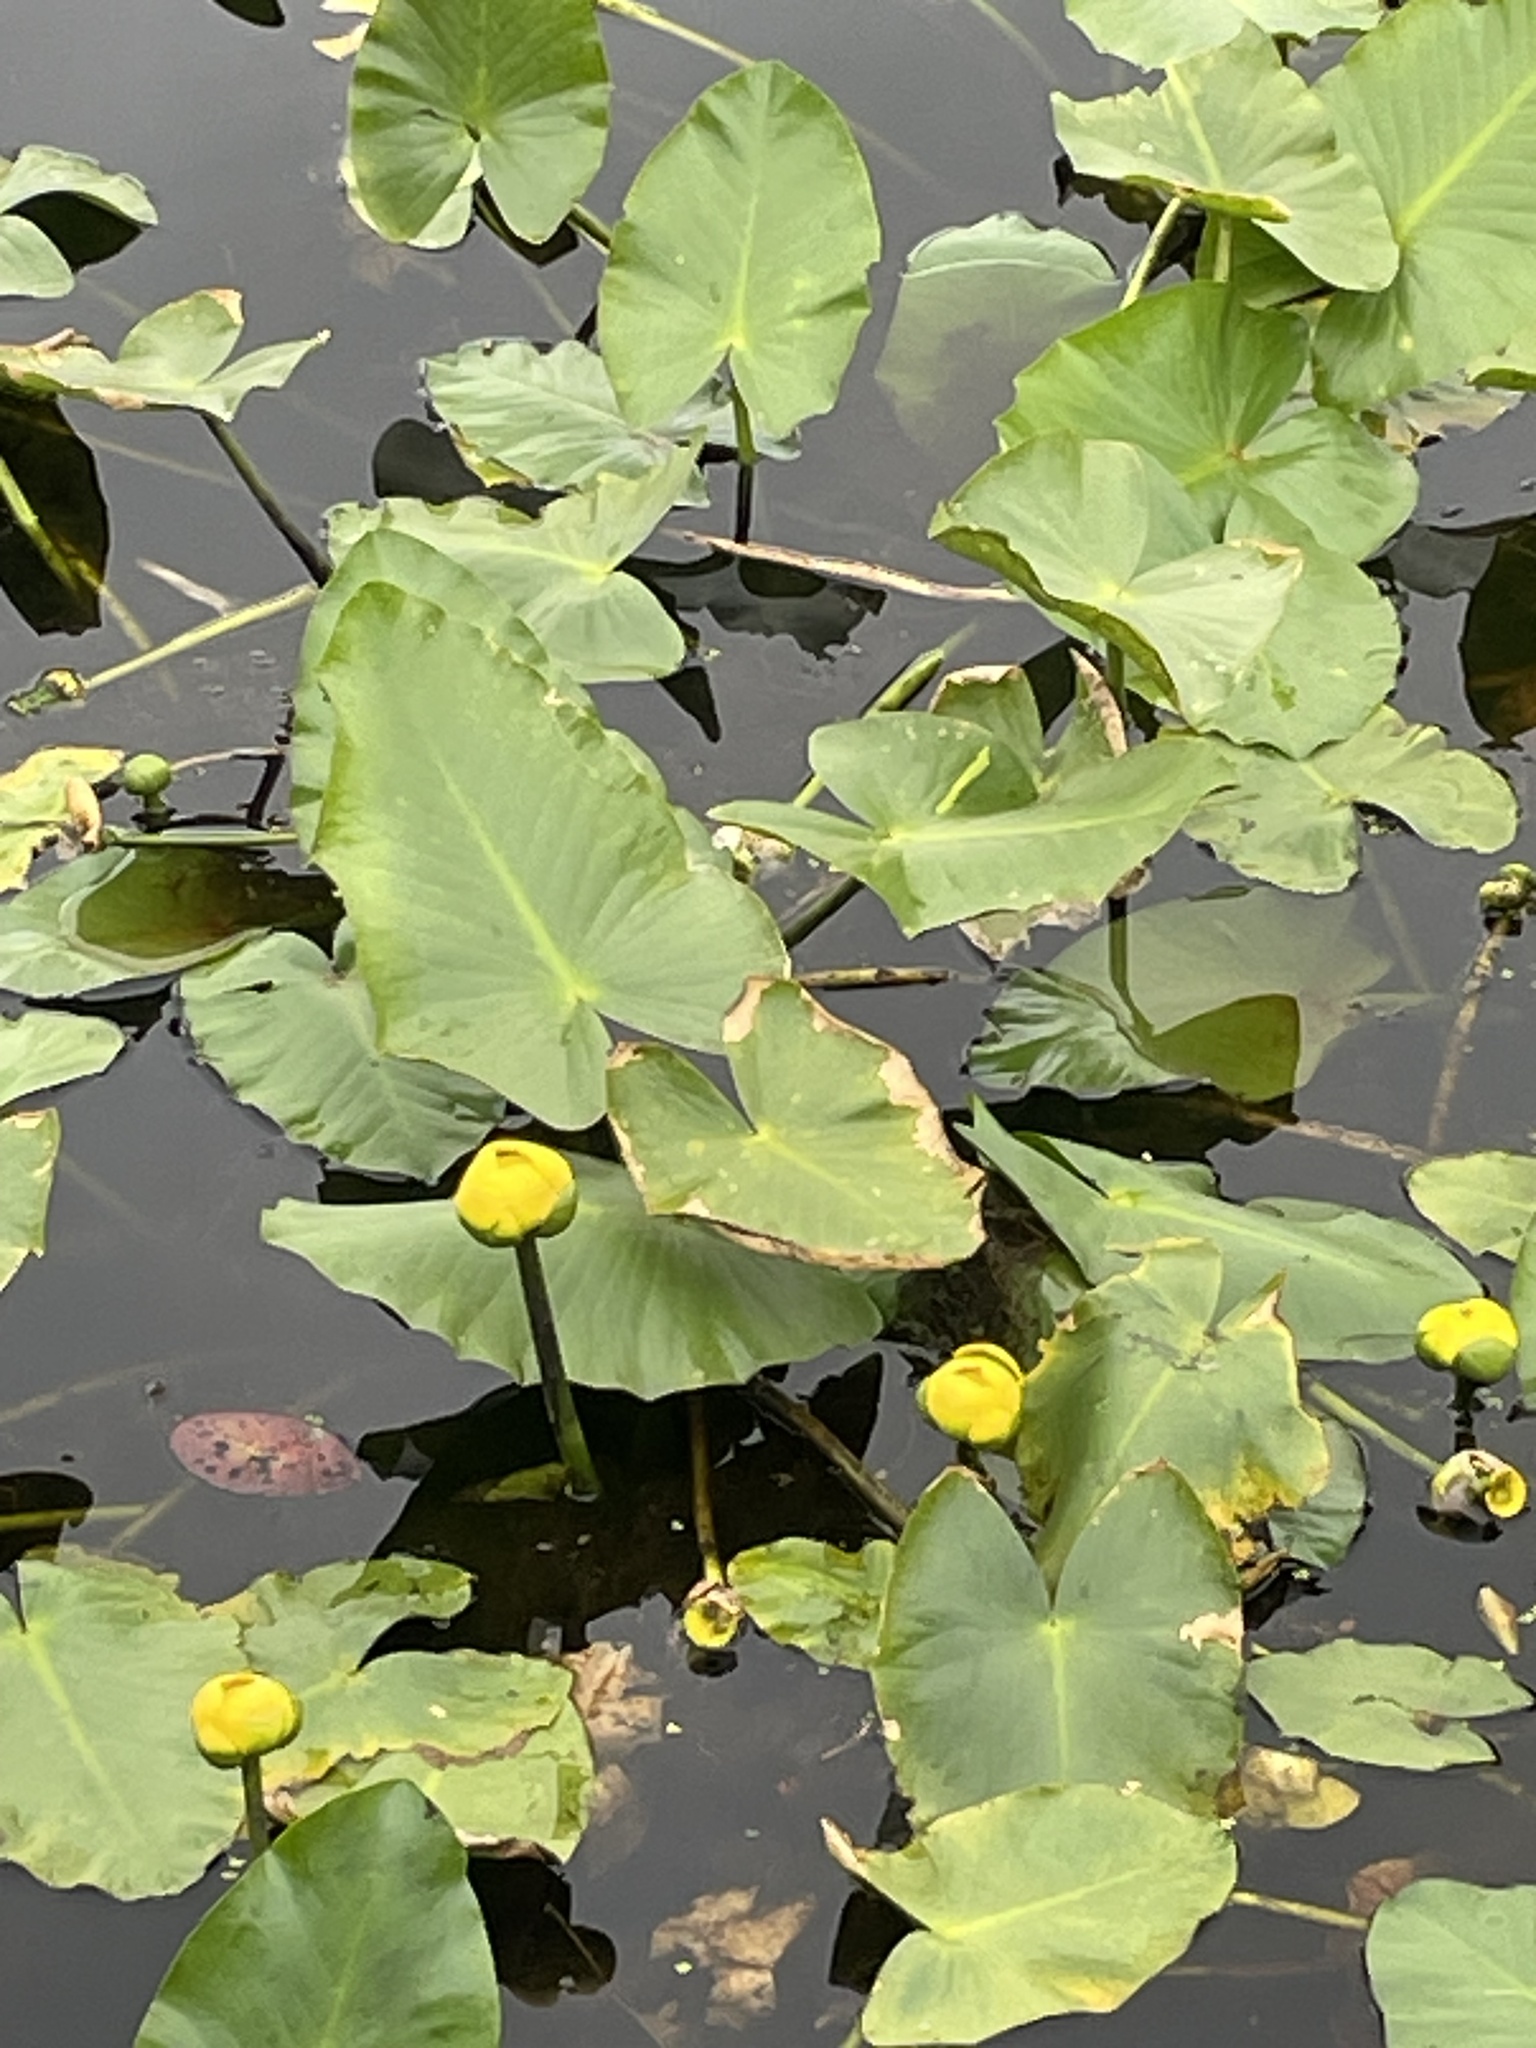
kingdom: Plantae
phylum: Tracheophyta
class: Magnoliopsida
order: Nymphaeales
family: Nymphaeaceae
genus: Nuphar
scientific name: Nuphar advena
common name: Spatter-dock
